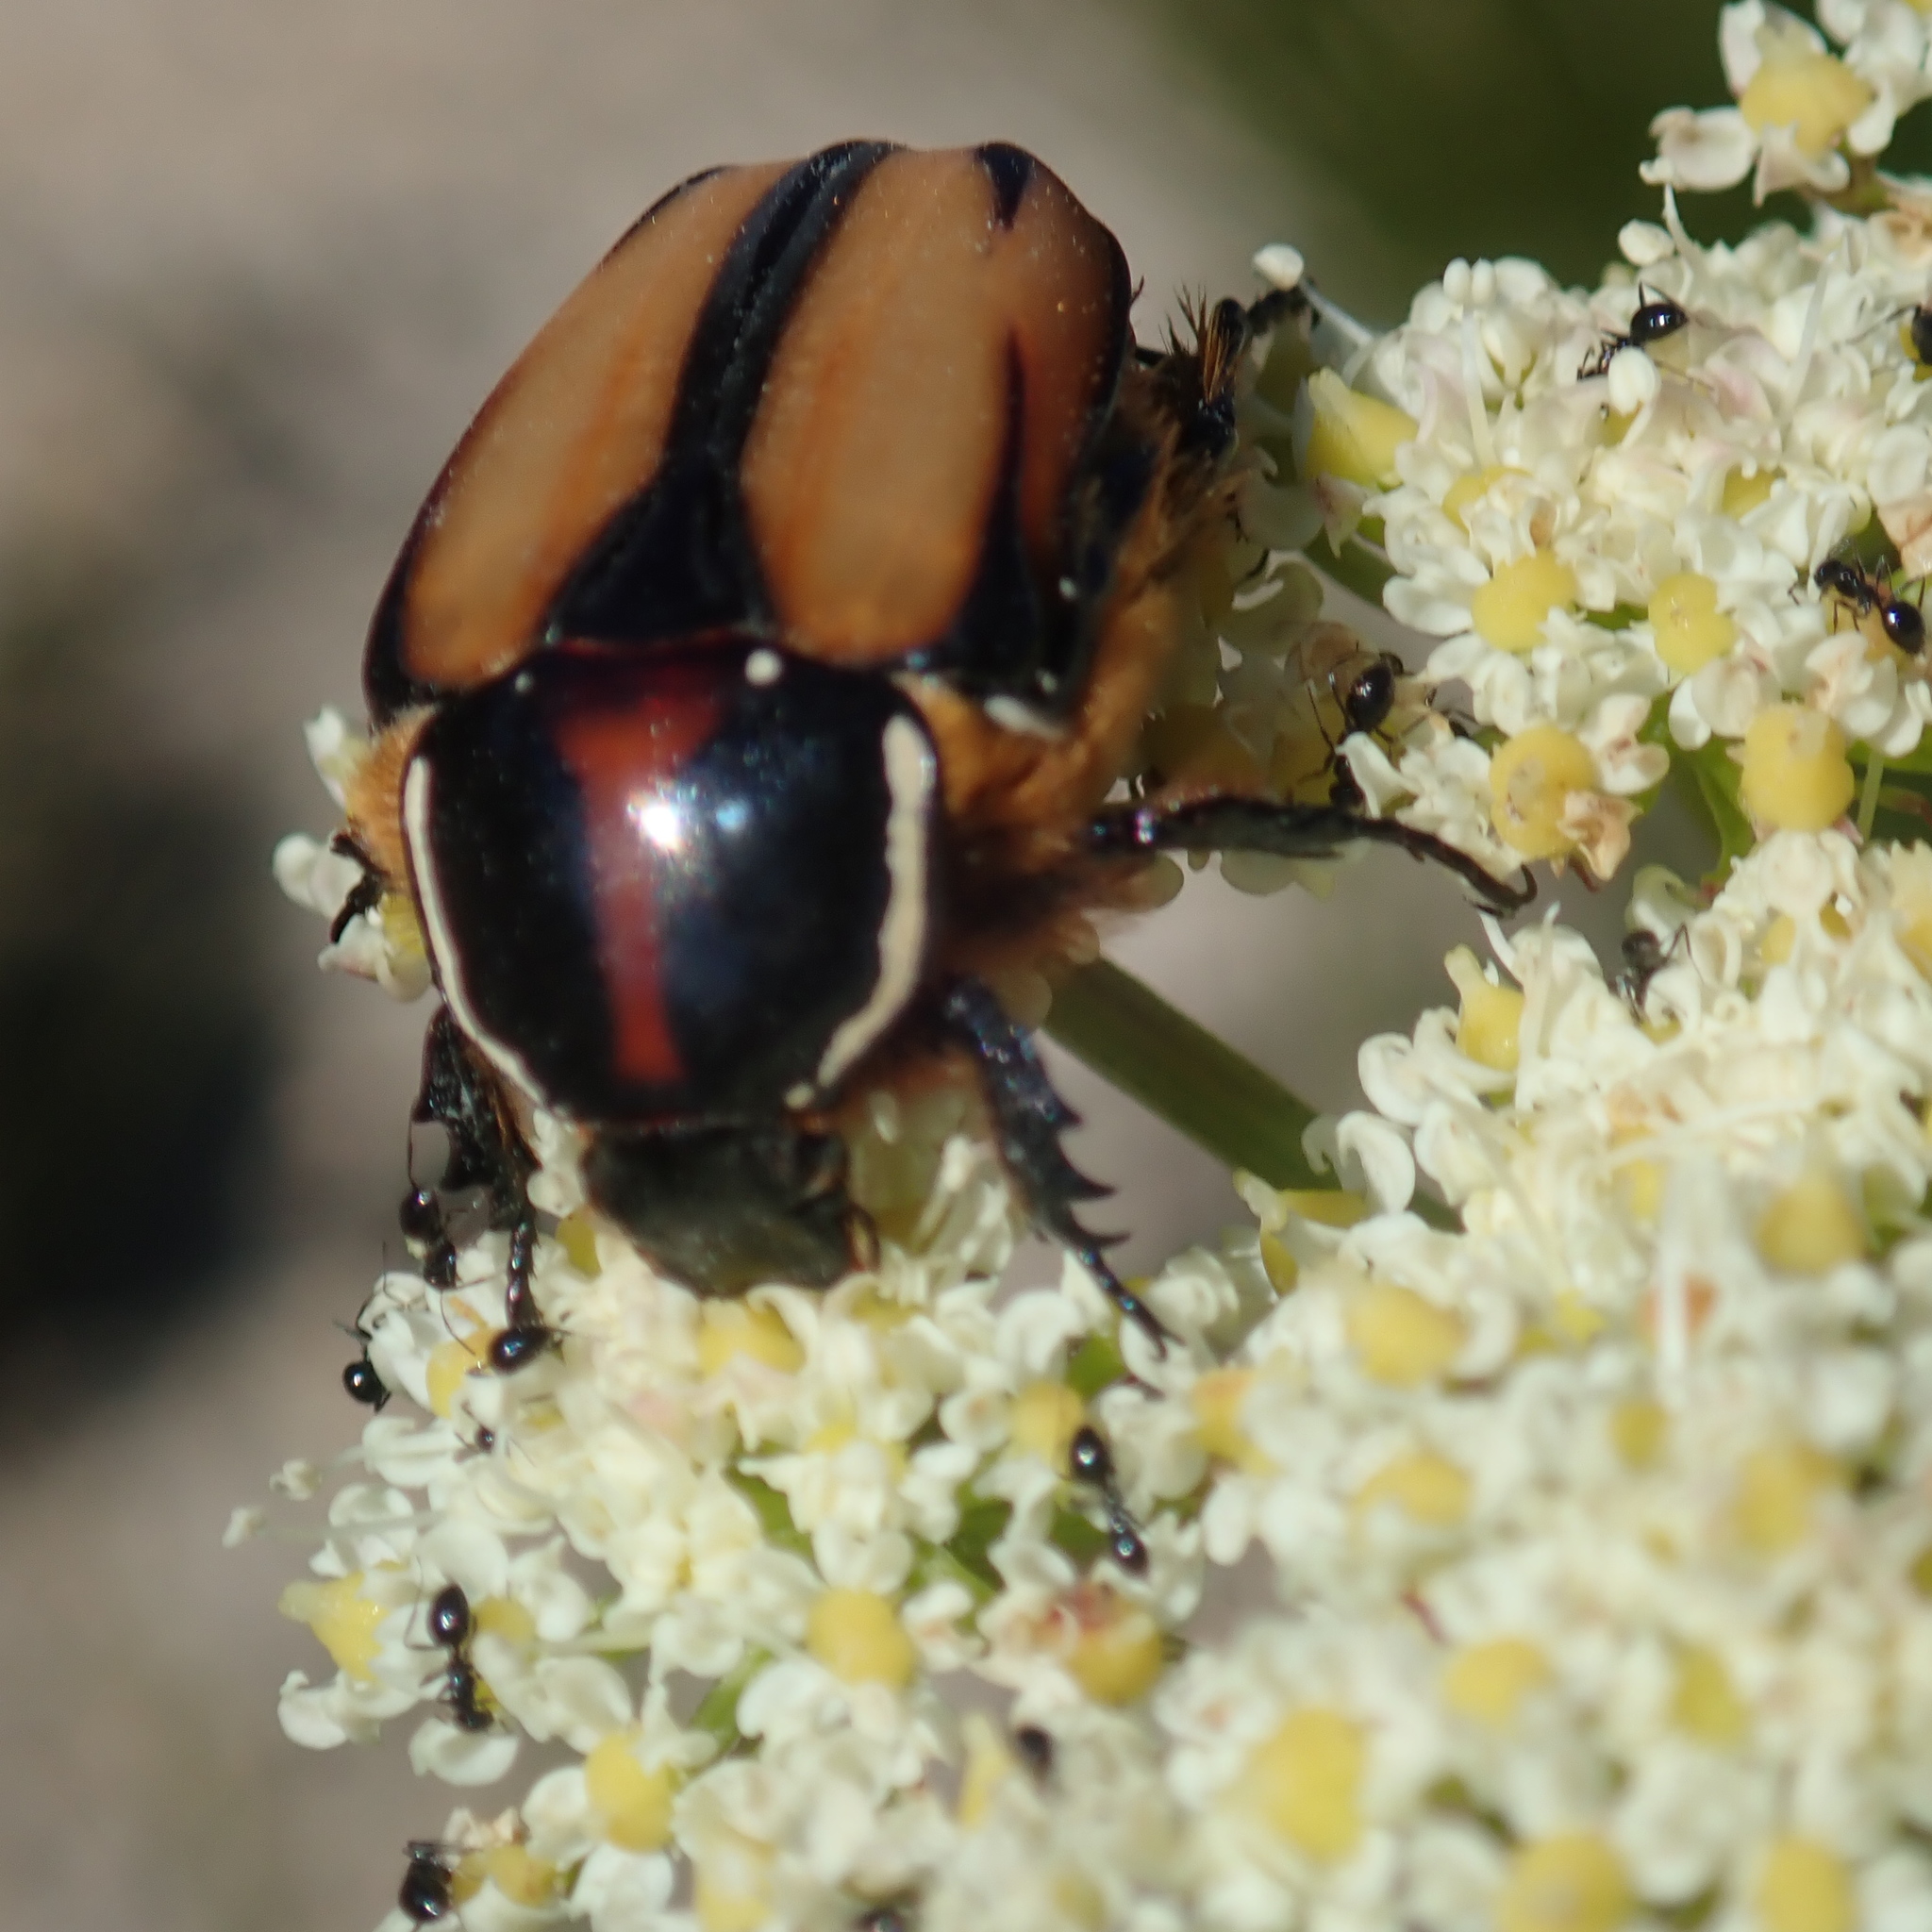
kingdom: Animalia
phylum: Arthropoda
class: Insecta
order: Coleoptera
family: Scarabaeidae
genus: Trichostetha
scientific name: Trichostetha signata
